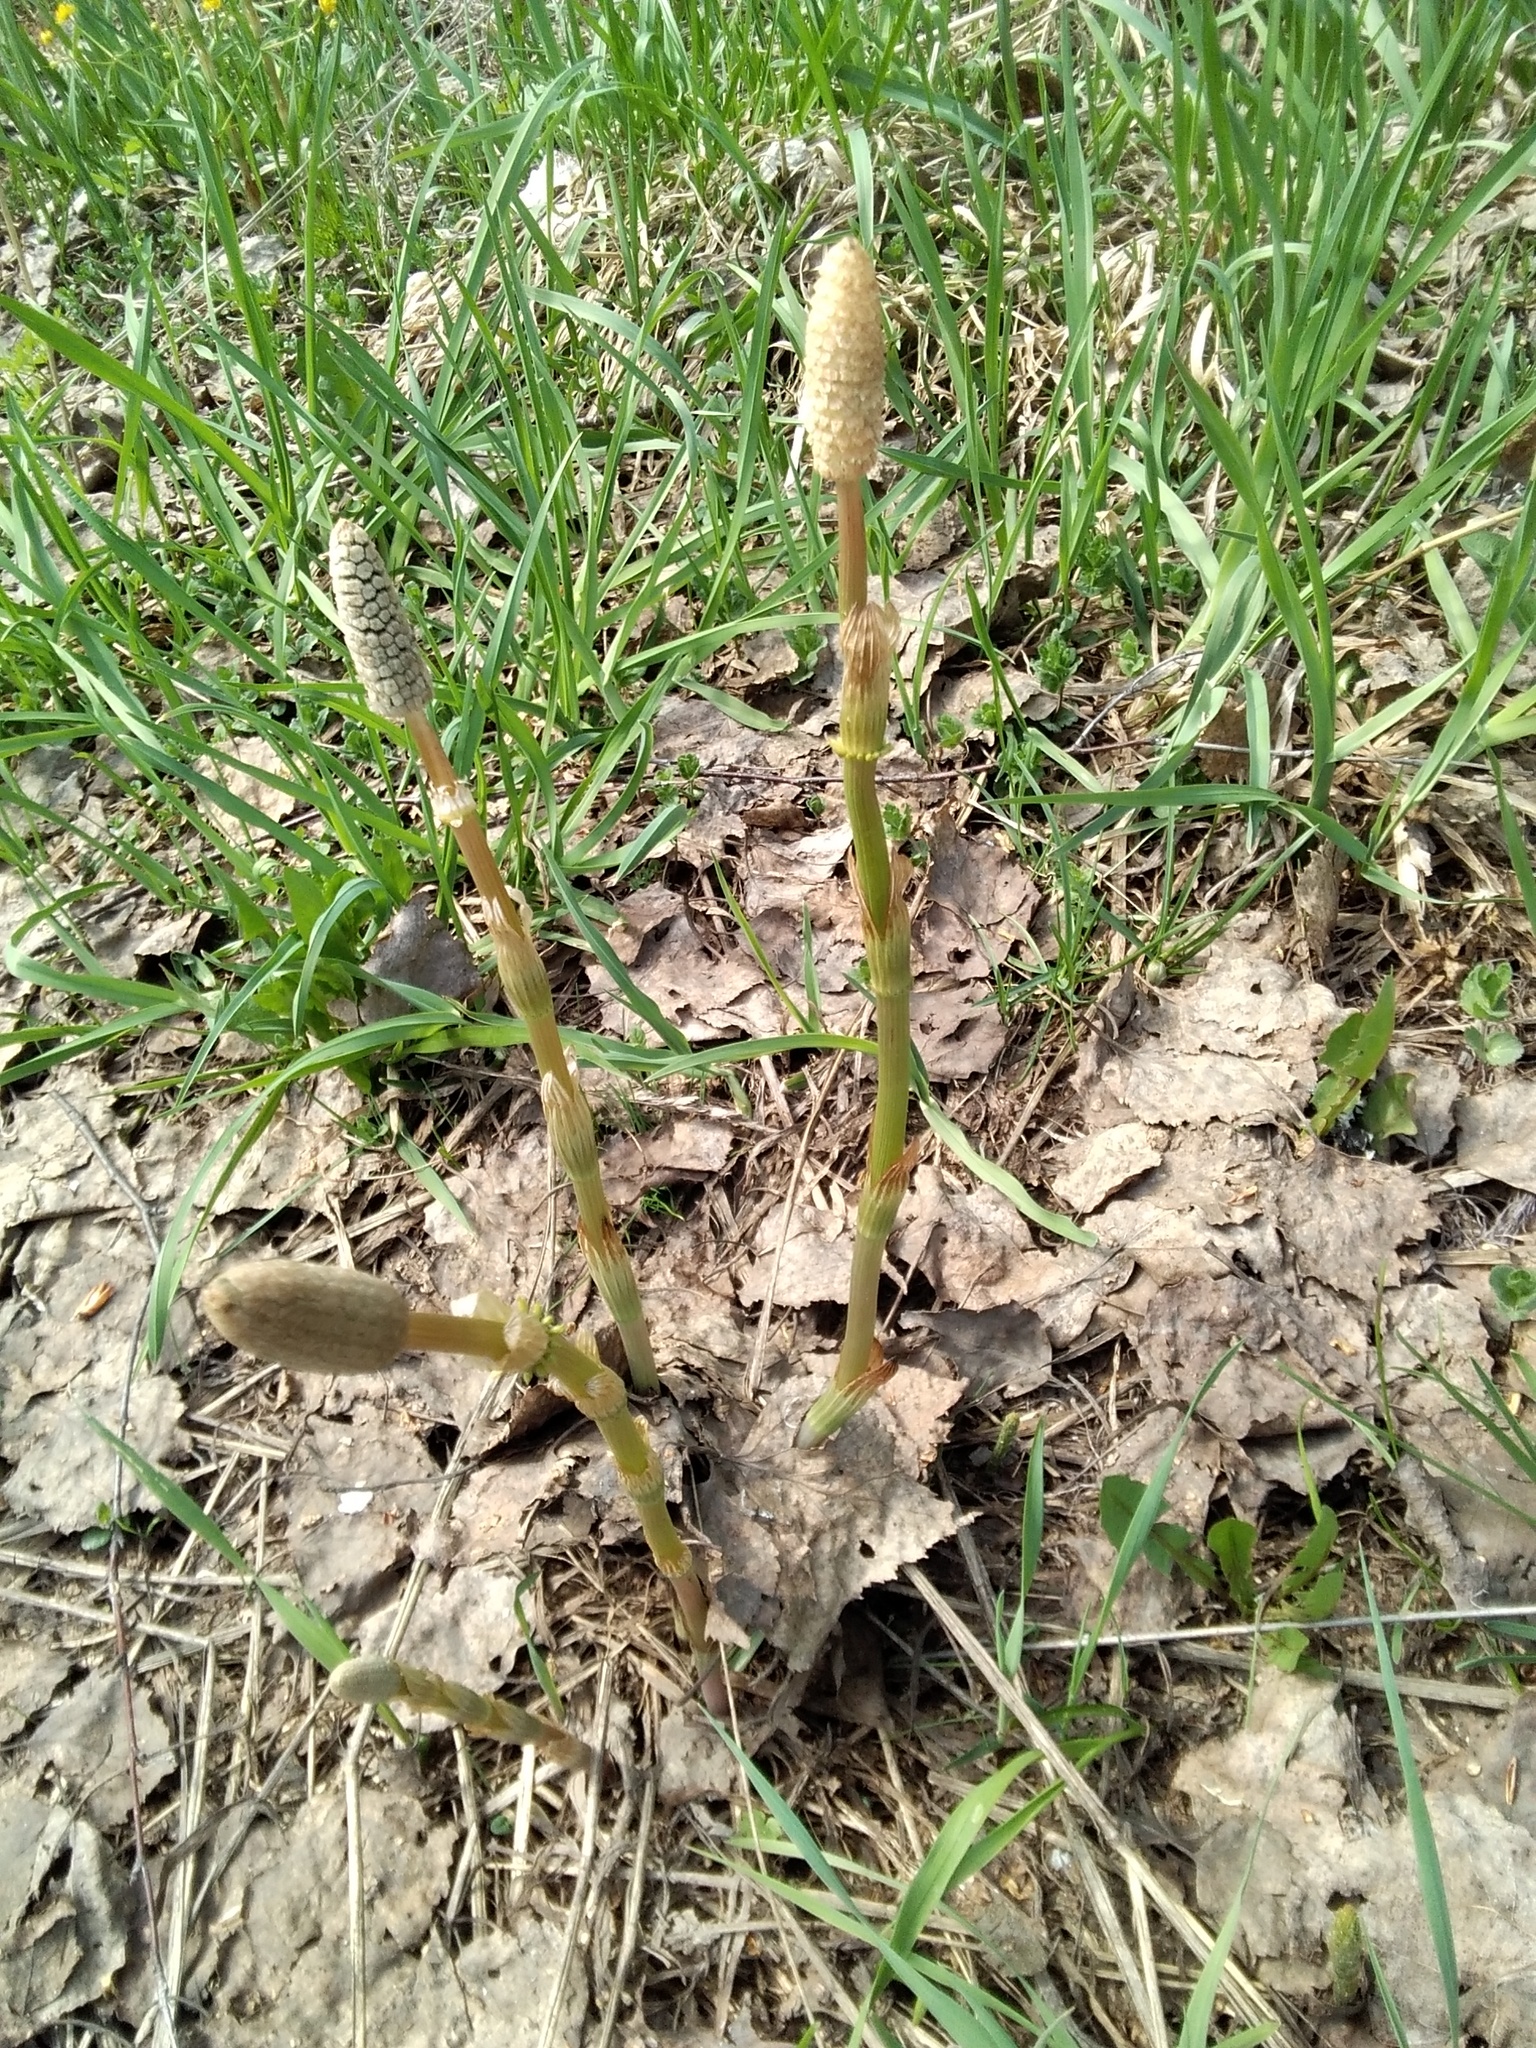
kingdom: Plantae
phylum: Tracheophyta
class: Polypodiopsida
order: Equisetales
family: Equisetaceae
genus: Equisetum
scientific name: Equisetum sylvaticum
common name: Wood horsetail
